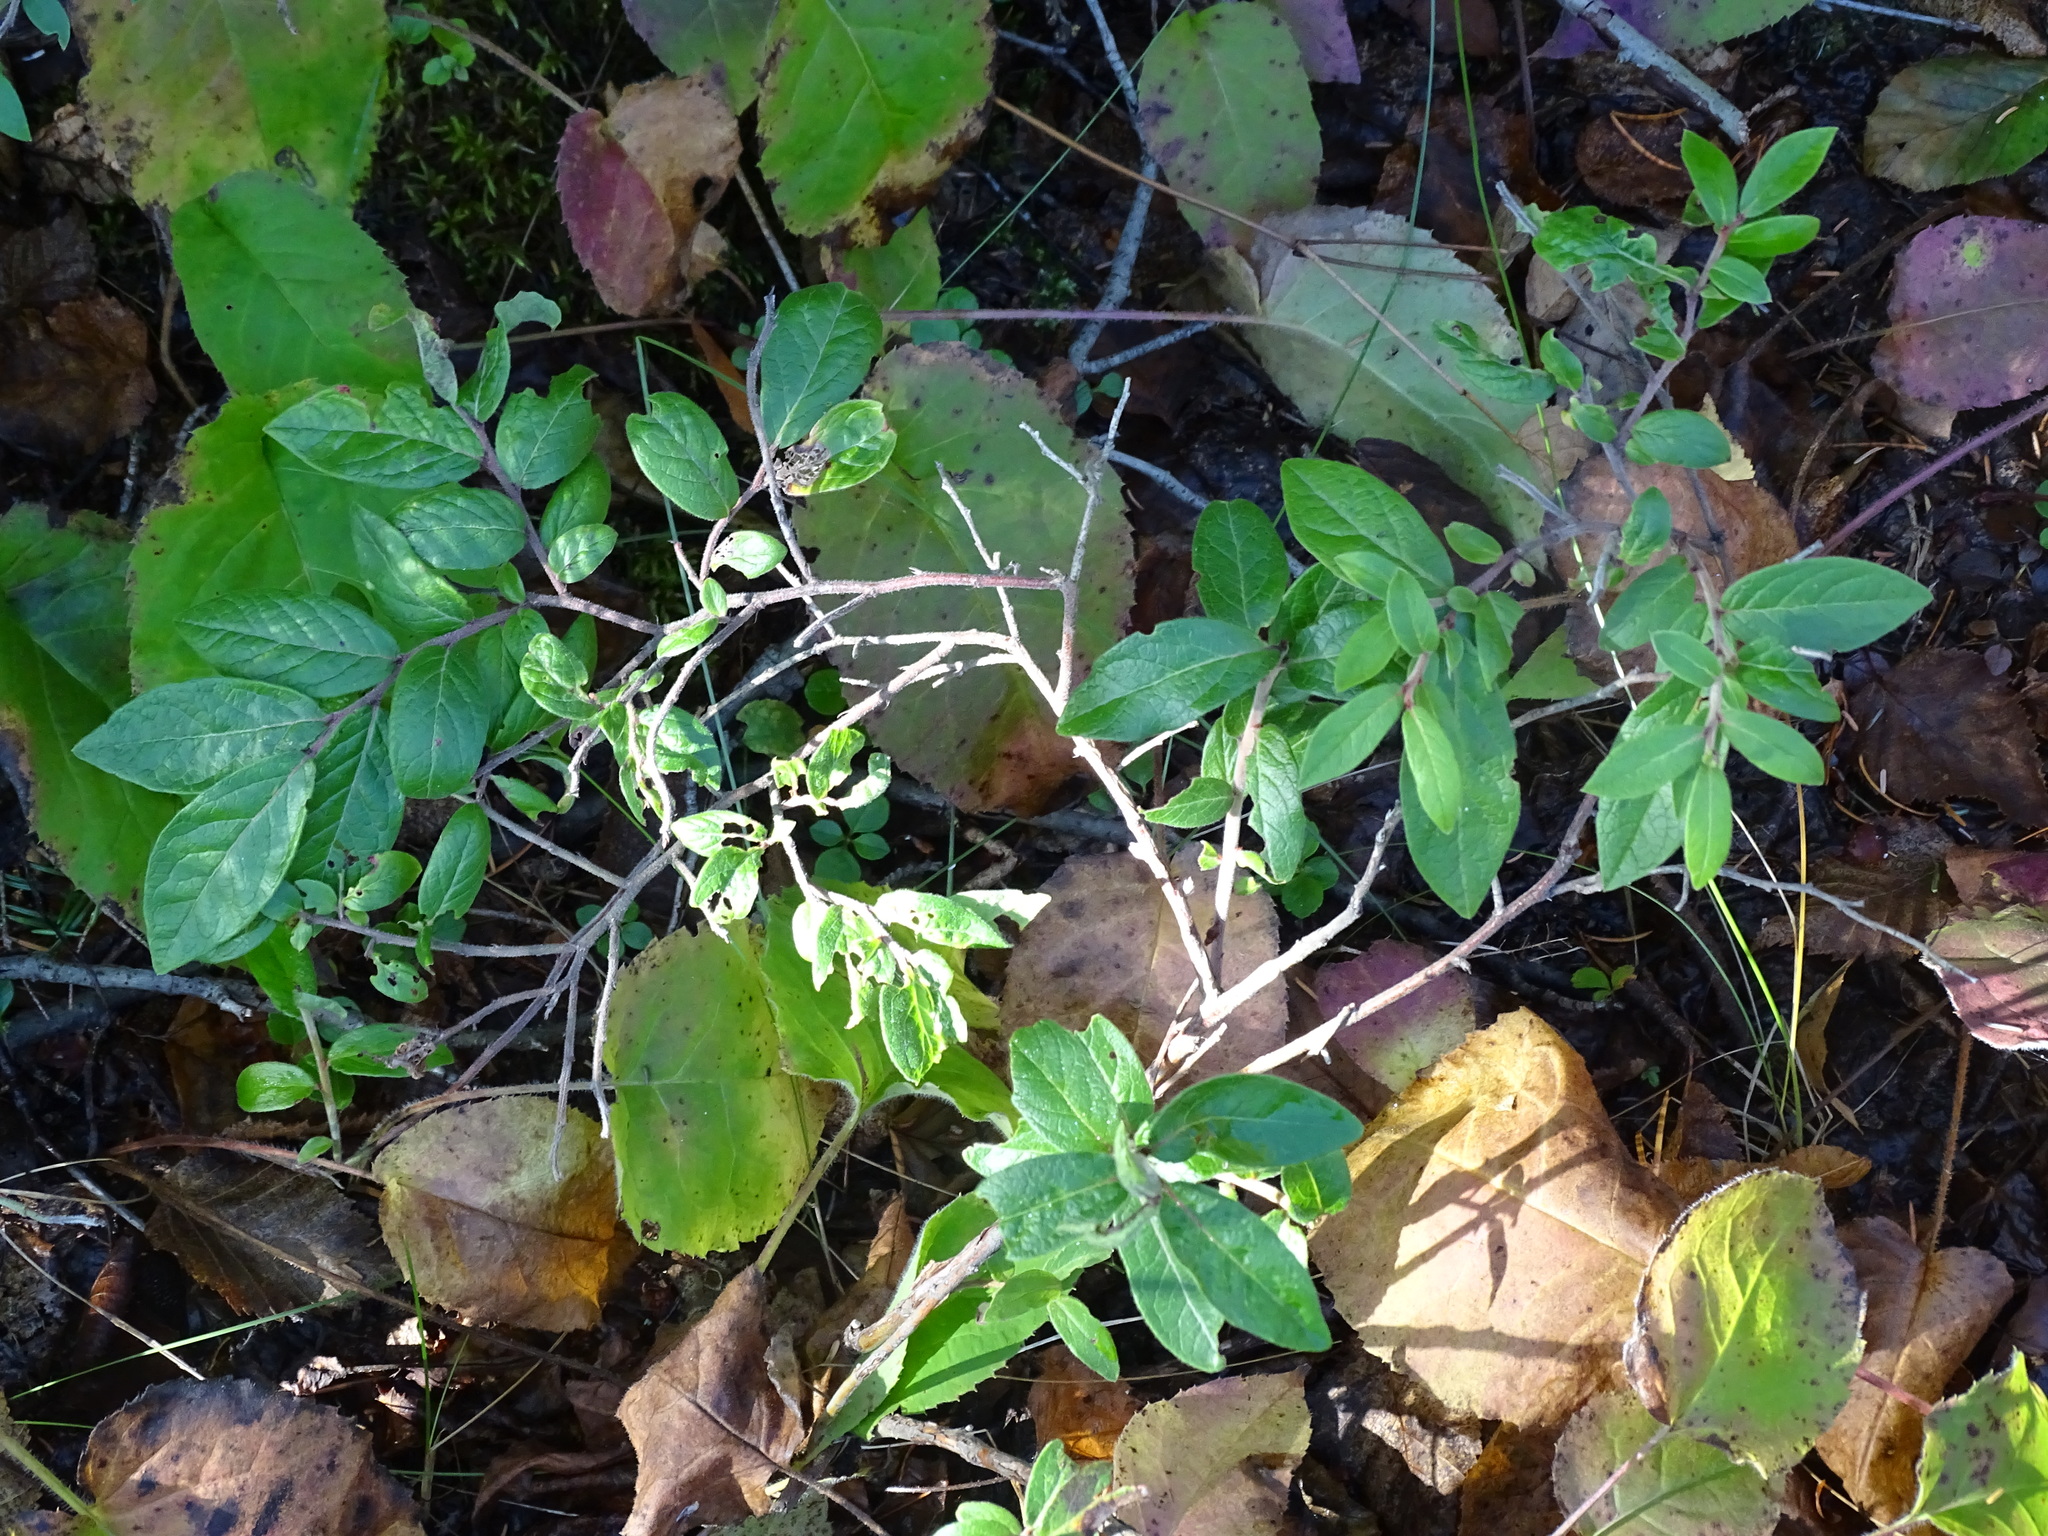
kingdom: Plantae
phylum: Tracheophyta
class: Magnoliopsida
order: Ericales
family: Ericaceae
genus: Vaccinium
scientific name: Vaccinium myrtilloides
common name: Canada blueberry
